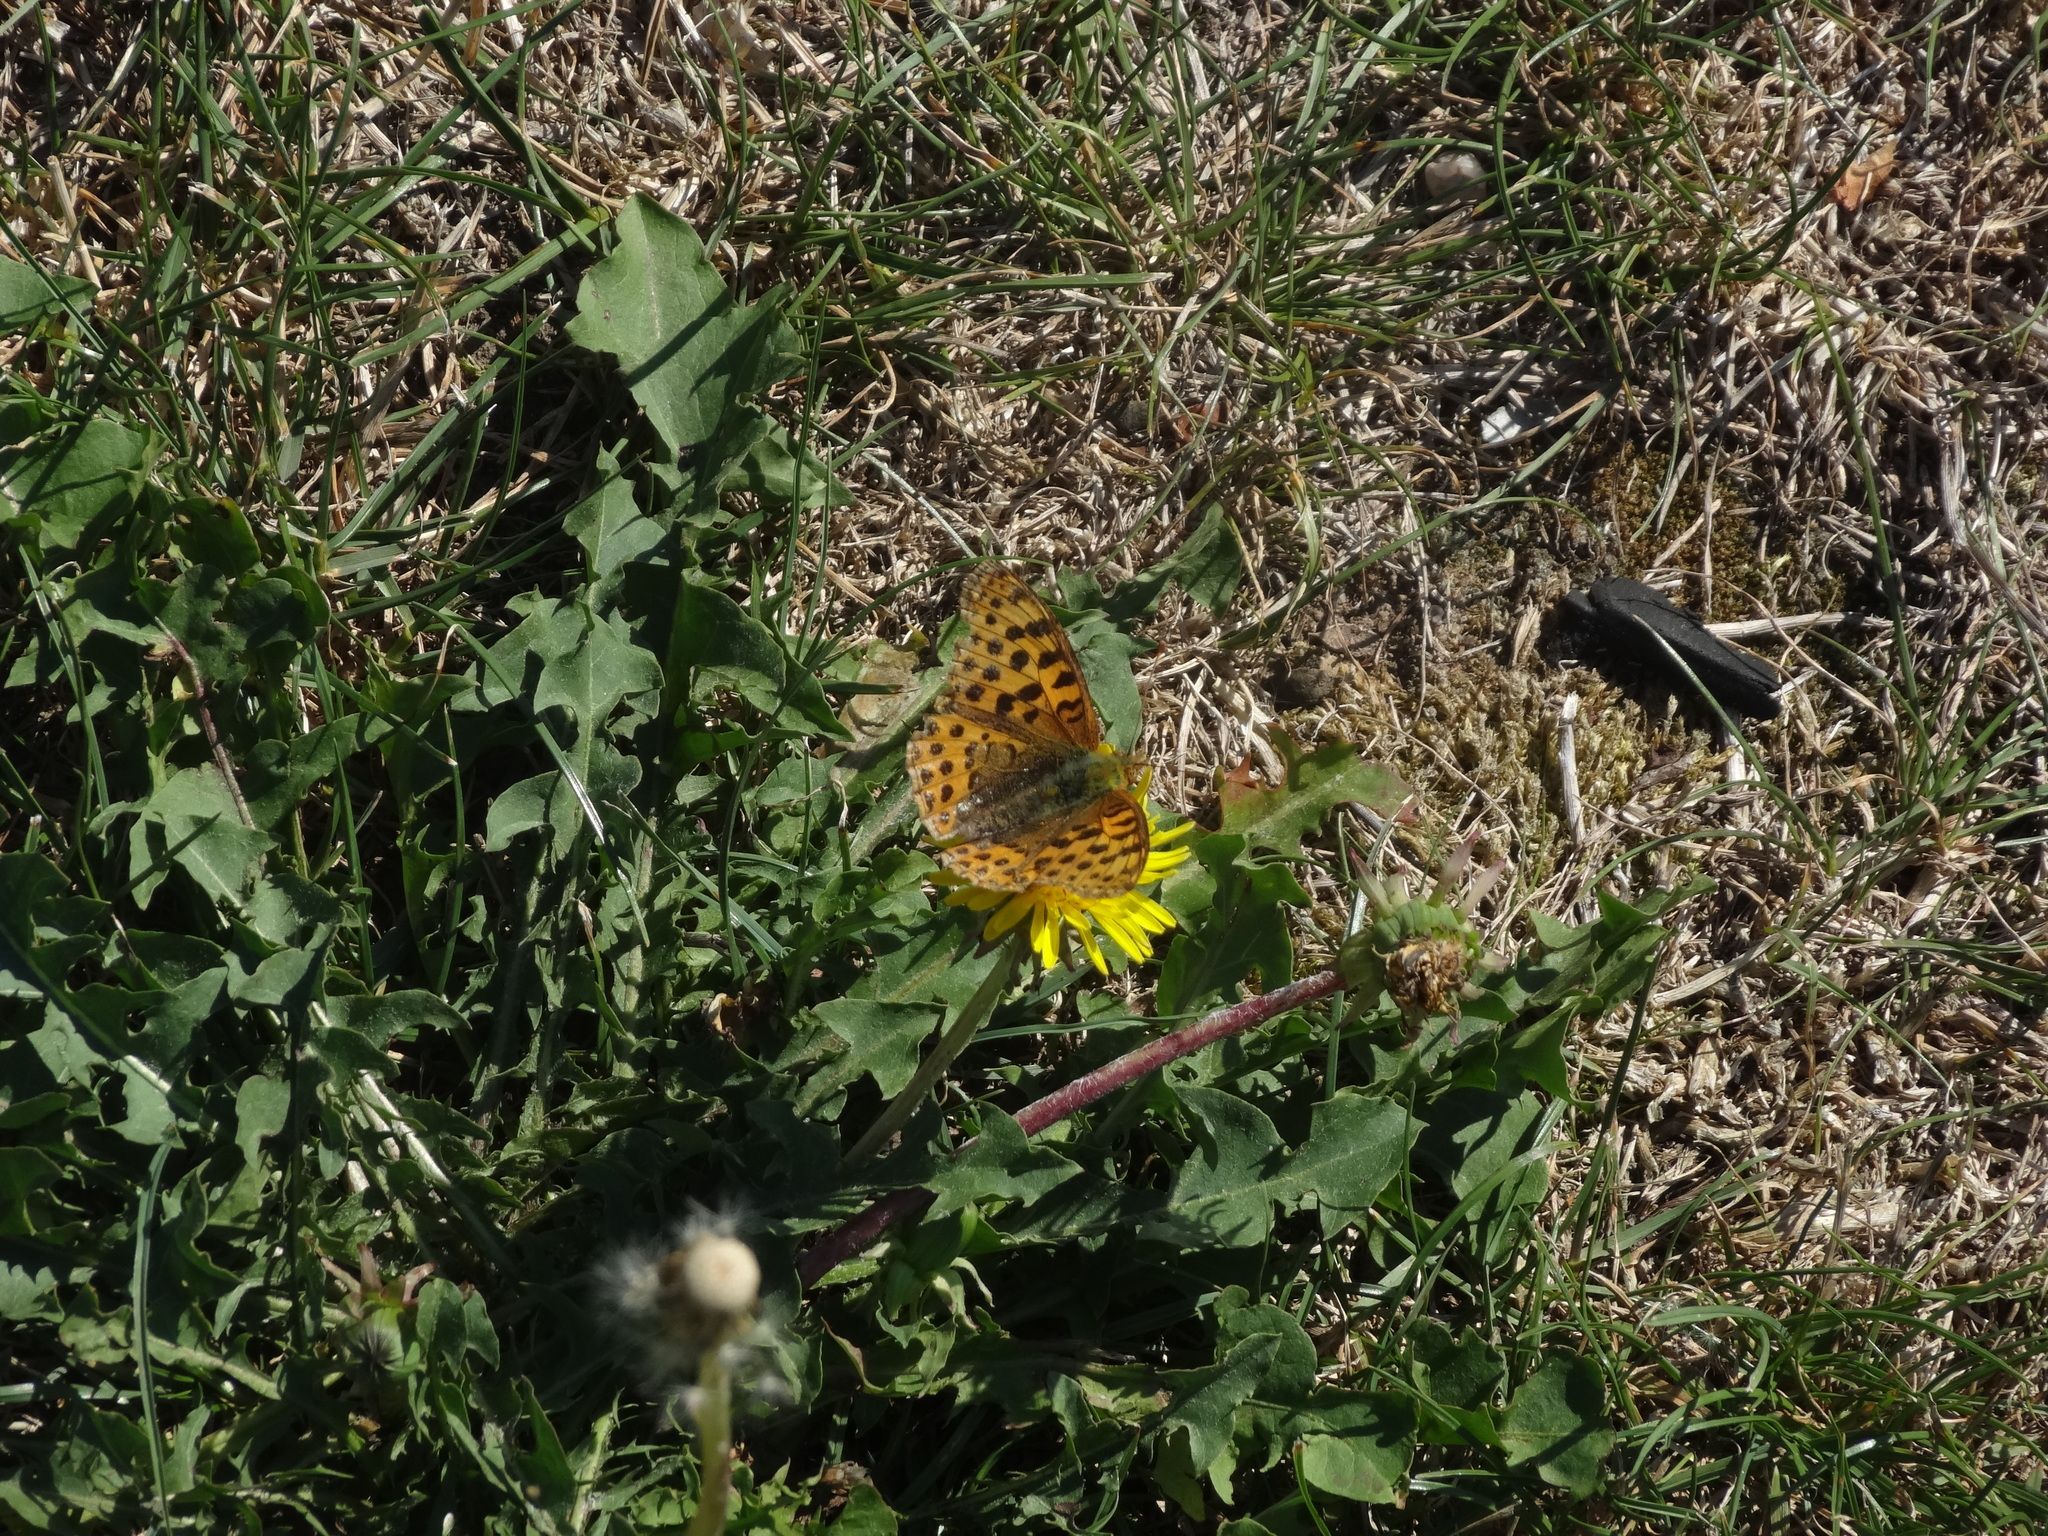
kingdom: Animalia
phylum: Arthropoda
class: Insecta
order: Lepidoptera
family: Nymphalidae
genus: Issoria
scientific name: Issoria lathonia
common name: Queen of spain fritillary
